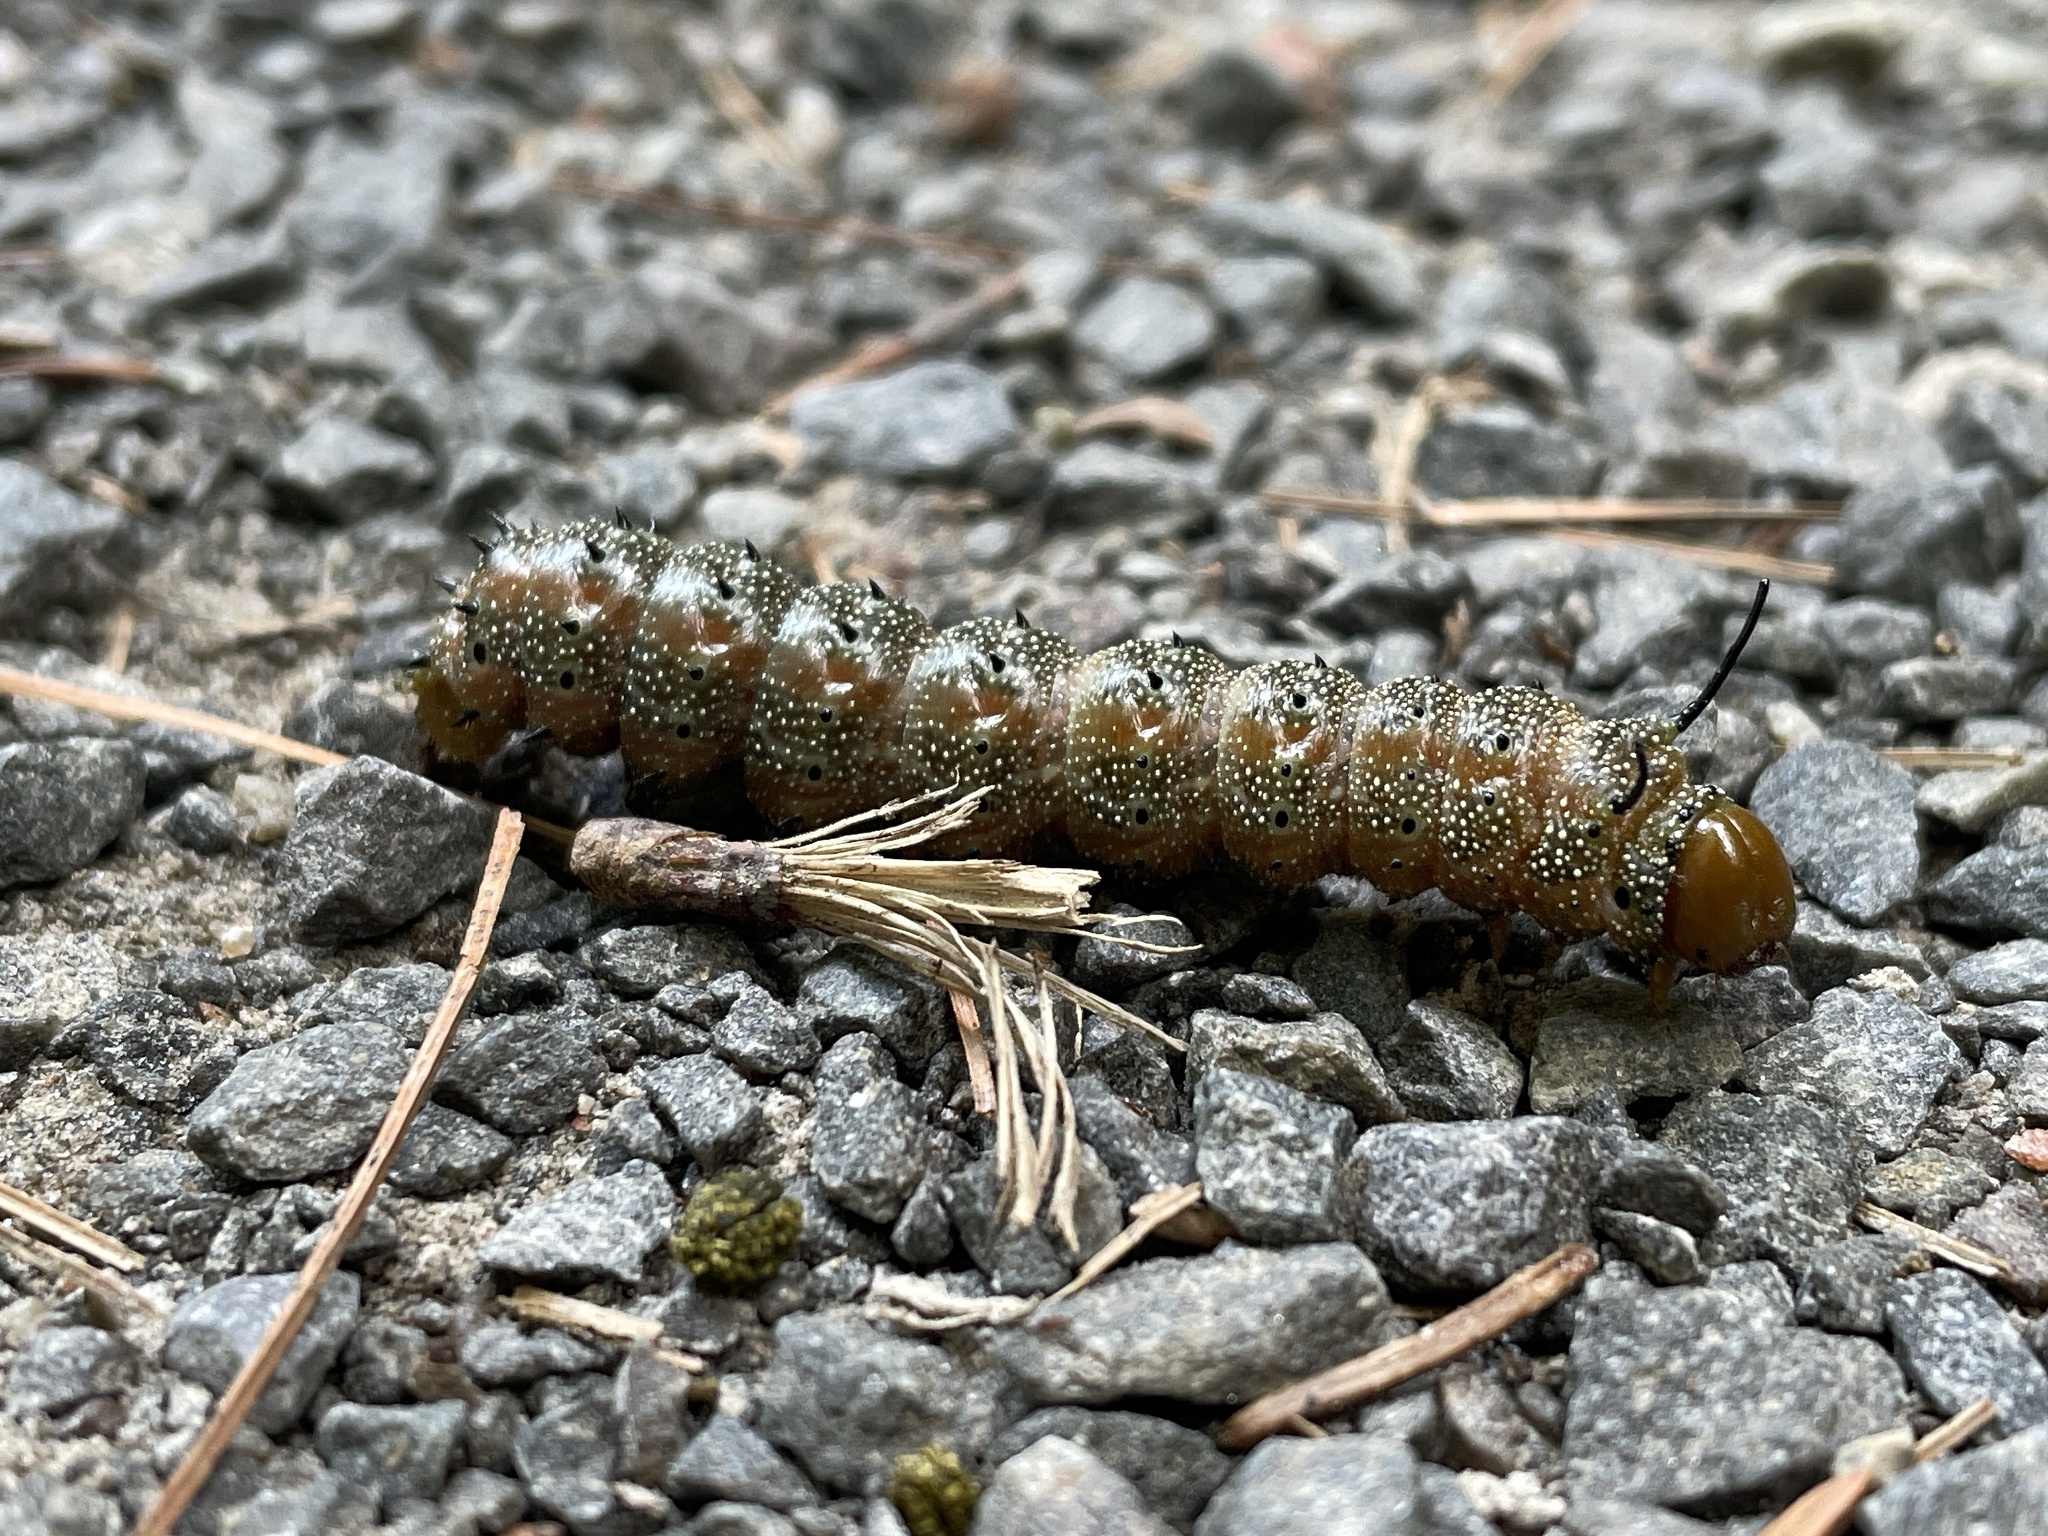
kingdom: Animalia
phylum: Arthropoda
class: Insecta
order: Lepidoptera
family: Saturniidae
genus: Anisota
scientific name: Anisota virginiensis
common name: Pink striped oakworm moth
